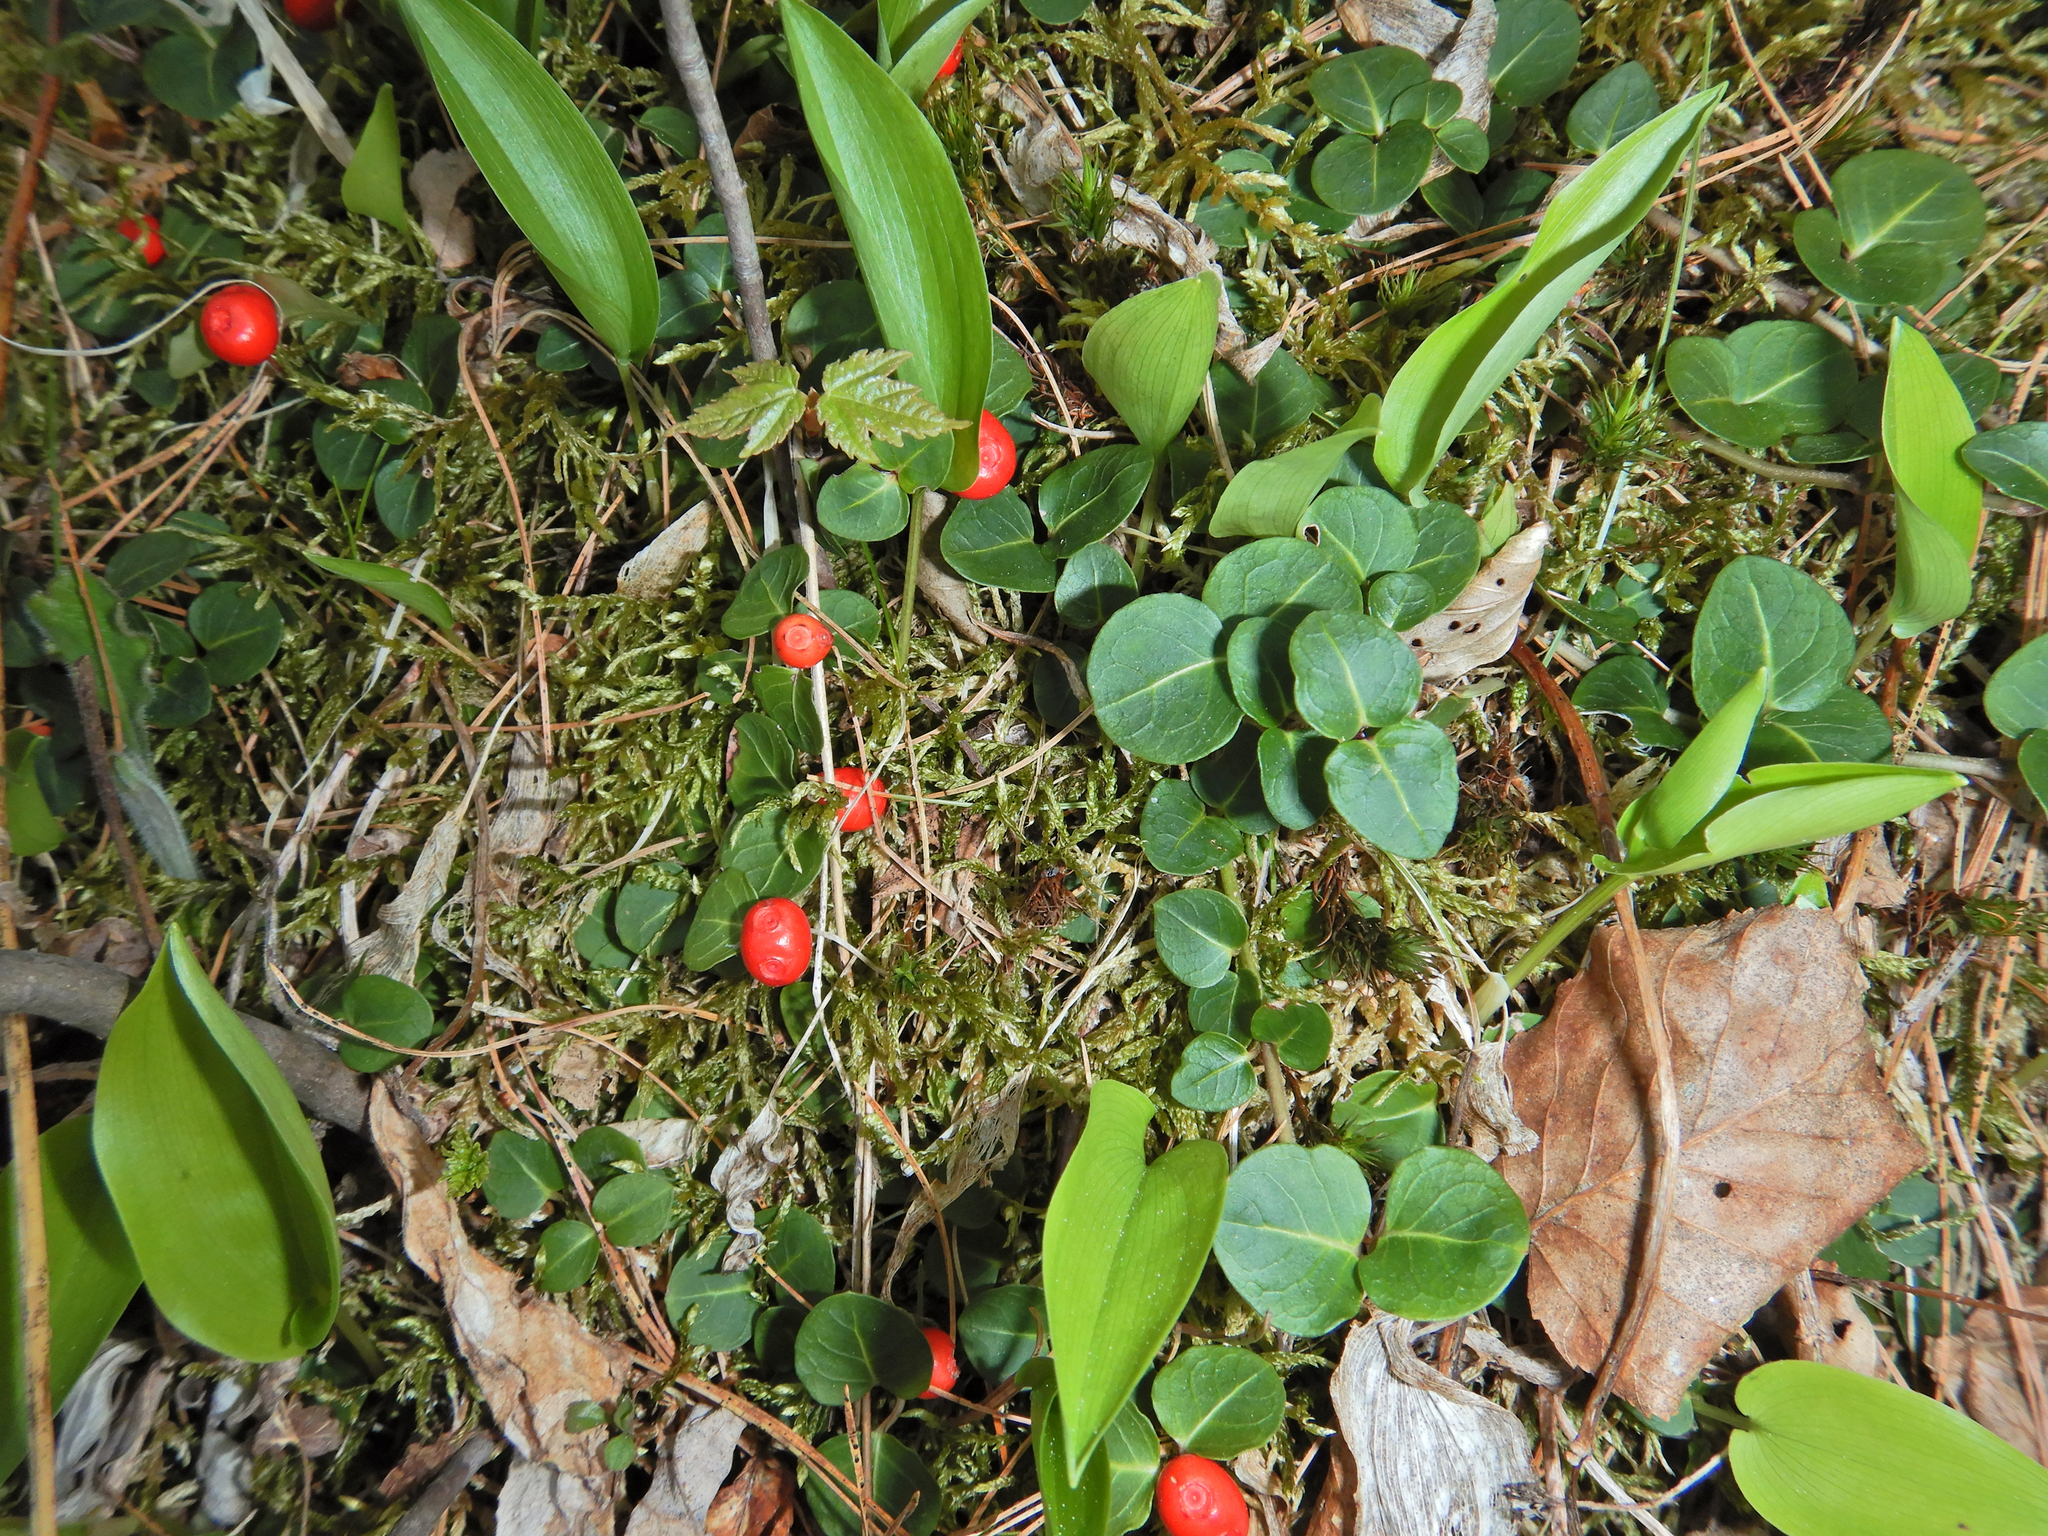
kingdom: Plantae
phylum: Tracheophyta
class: Magnoliopsida
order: Gentianales
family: Rubiaceae
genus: Mitchella
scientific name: Mitchella repens
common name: Partridge-berry
